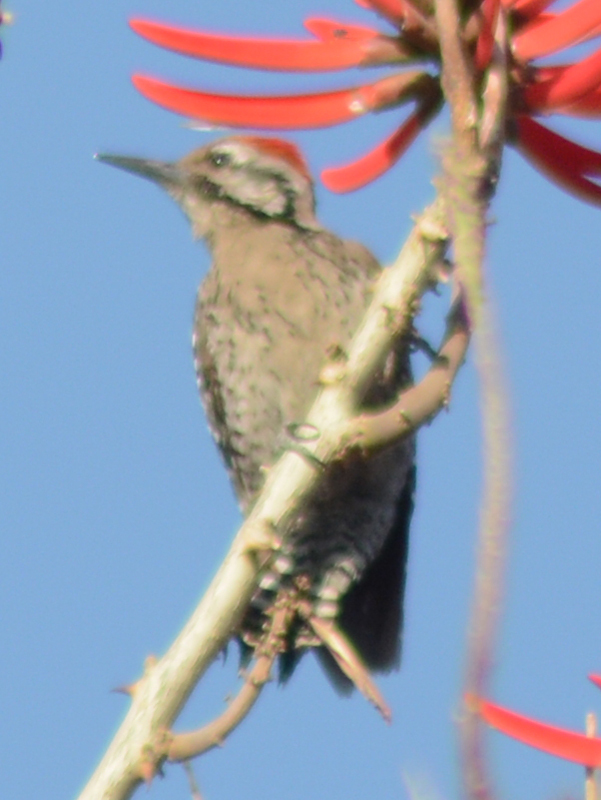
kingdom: Animalia
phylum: Chordata
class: Aves
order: Piciformes
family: Picidae
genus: Dryobates
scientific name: Dryobates scalaris
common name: Ladder-backed woodpecker
